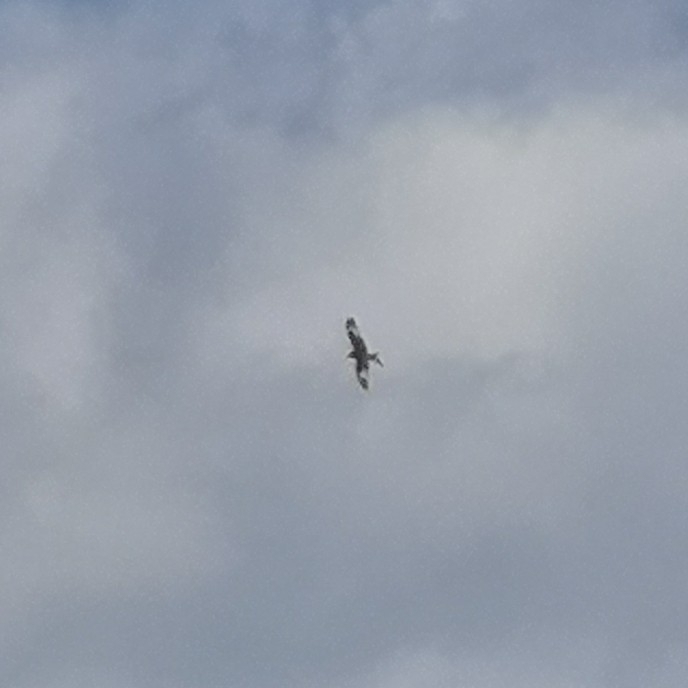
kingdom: Animalia
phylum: Chordata
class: Aves
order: Accipitriformes
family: Accipitridae
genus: Milvus
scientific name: Milvus milvus
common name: Red kite
